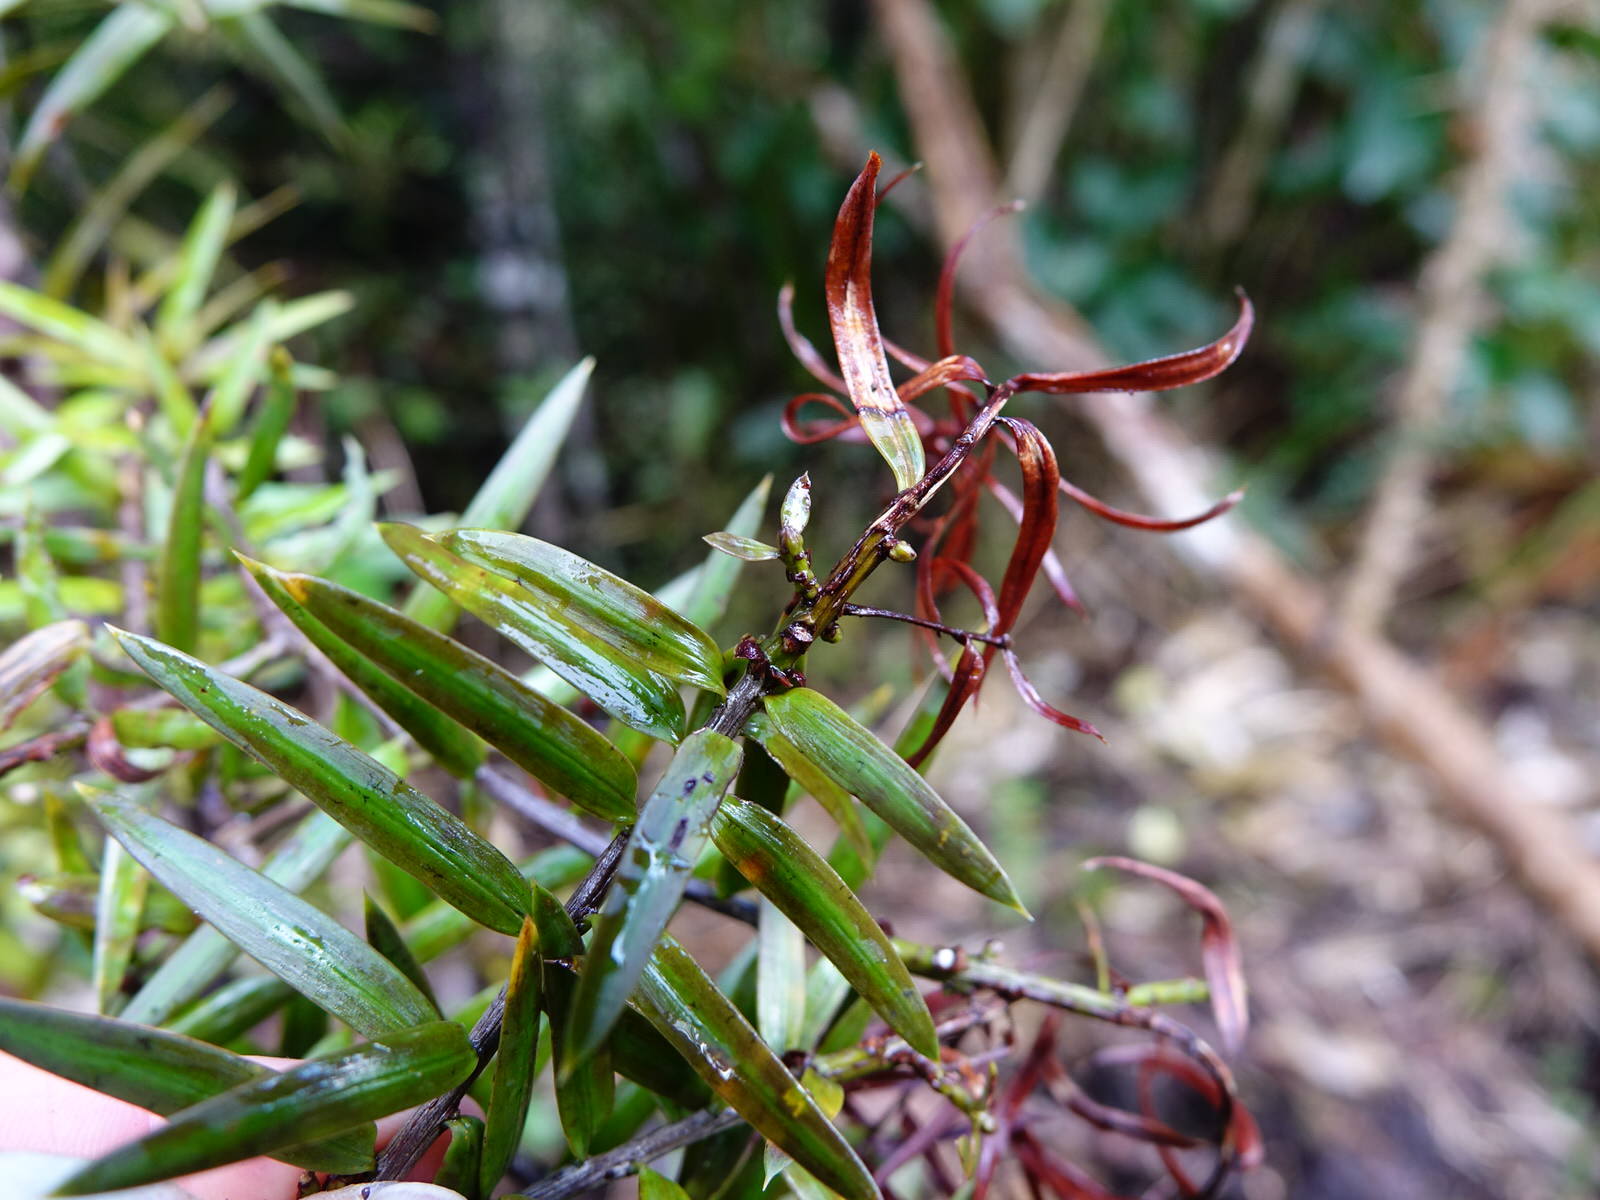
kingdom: Plantae
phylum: Tracheophyta
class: Pinopsida
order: Pinales
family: Podocarpaceae
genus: Podocarpus
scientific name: Podocarpus totara
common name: Totara
